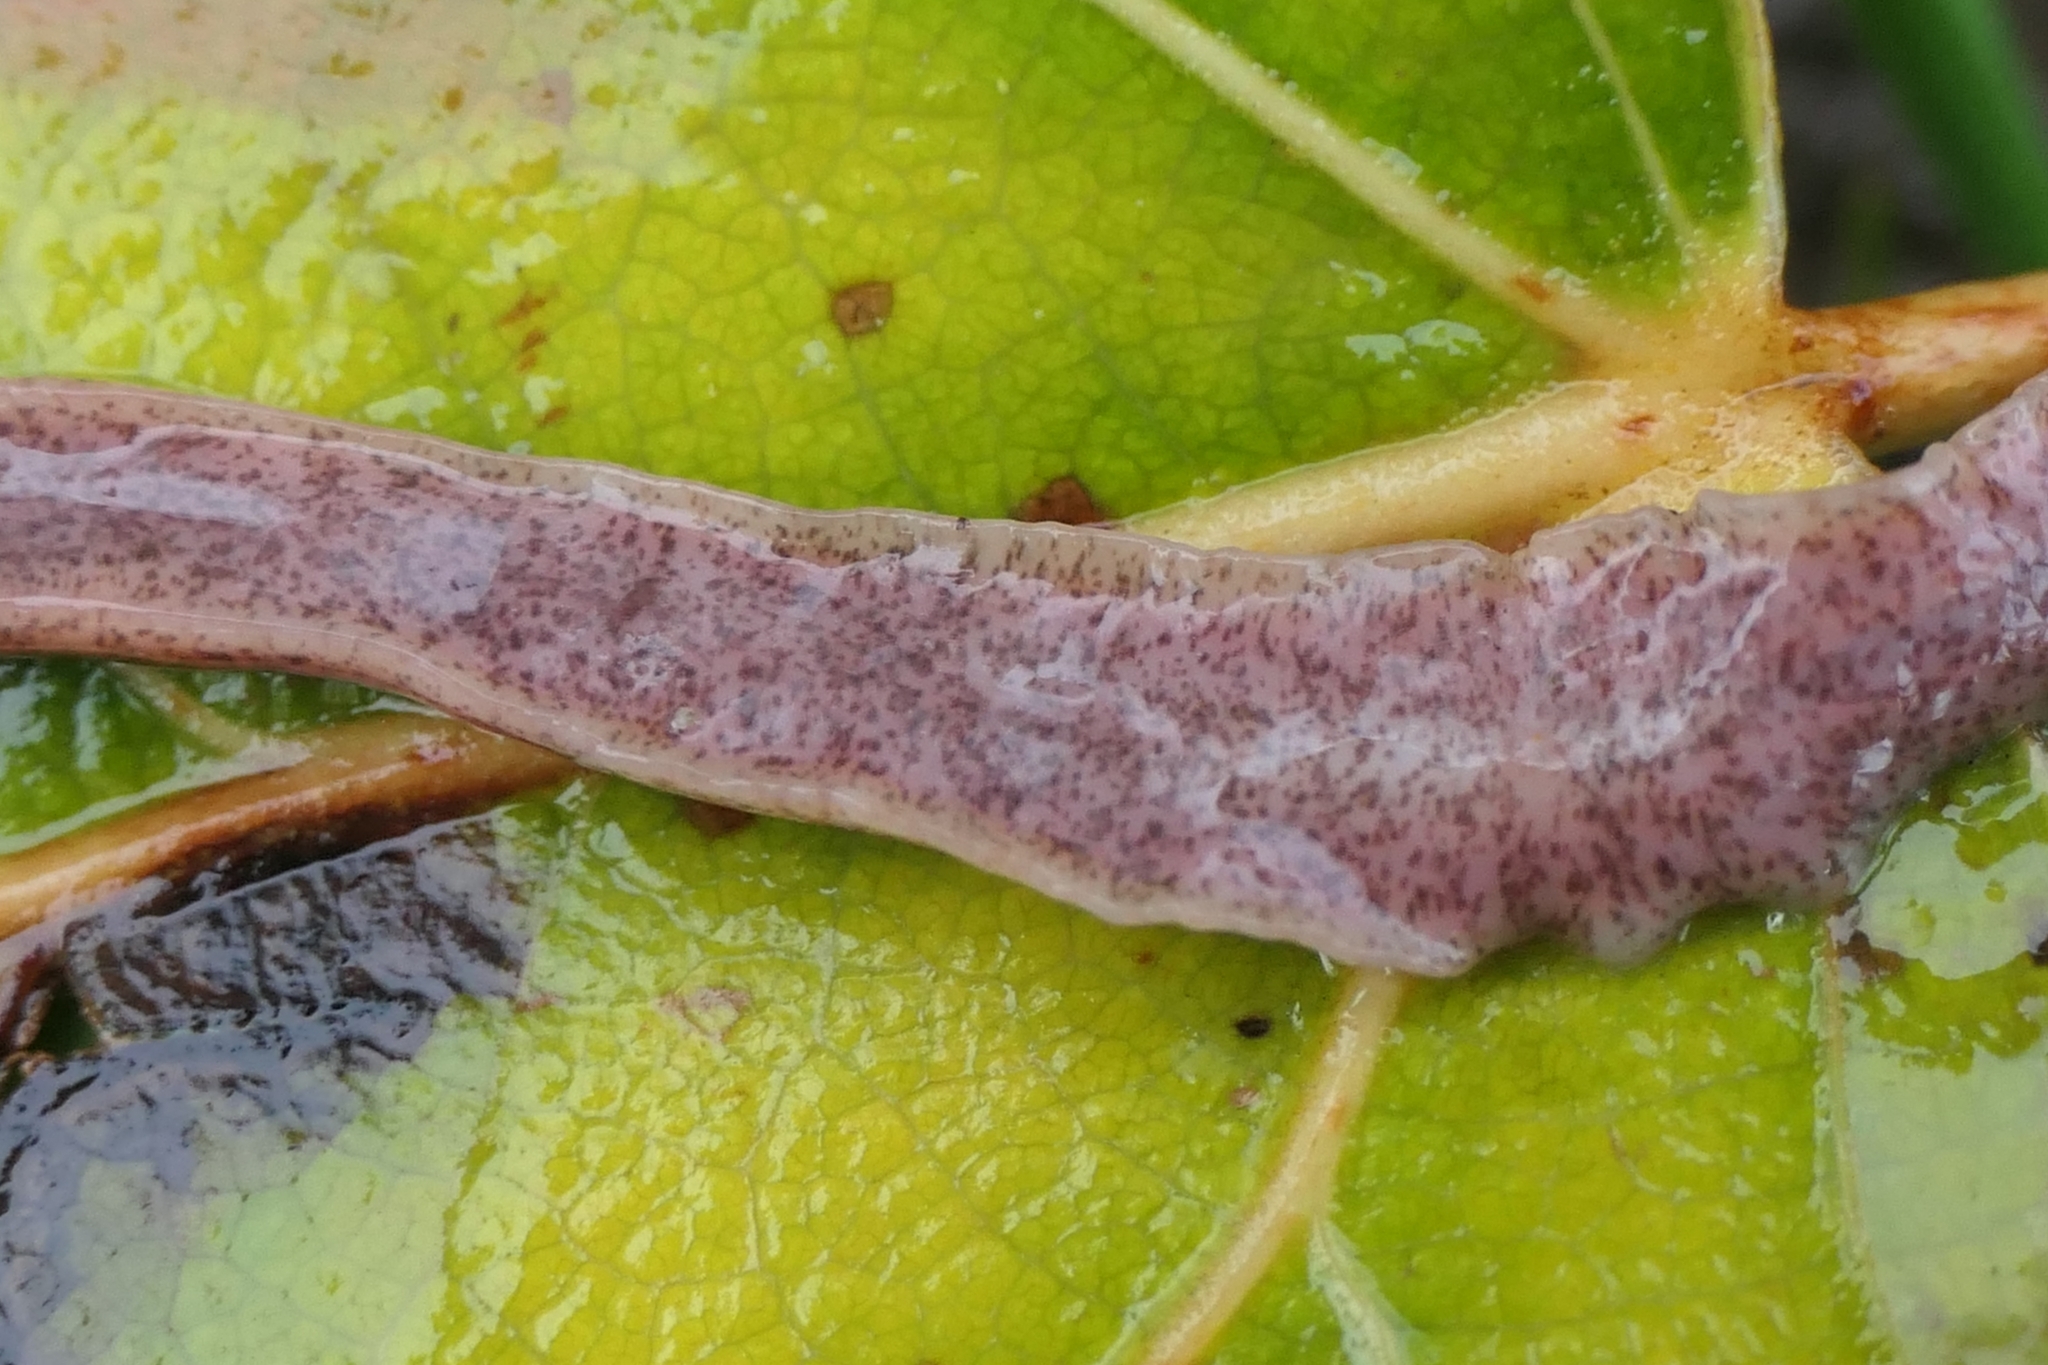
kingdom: Animalia
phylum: Platyhelminthes
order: Tricladida
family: Geoplanidae
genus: Arthurdendyus
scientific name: Arthurdendyus triangulatus
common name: New zealand flatworm
